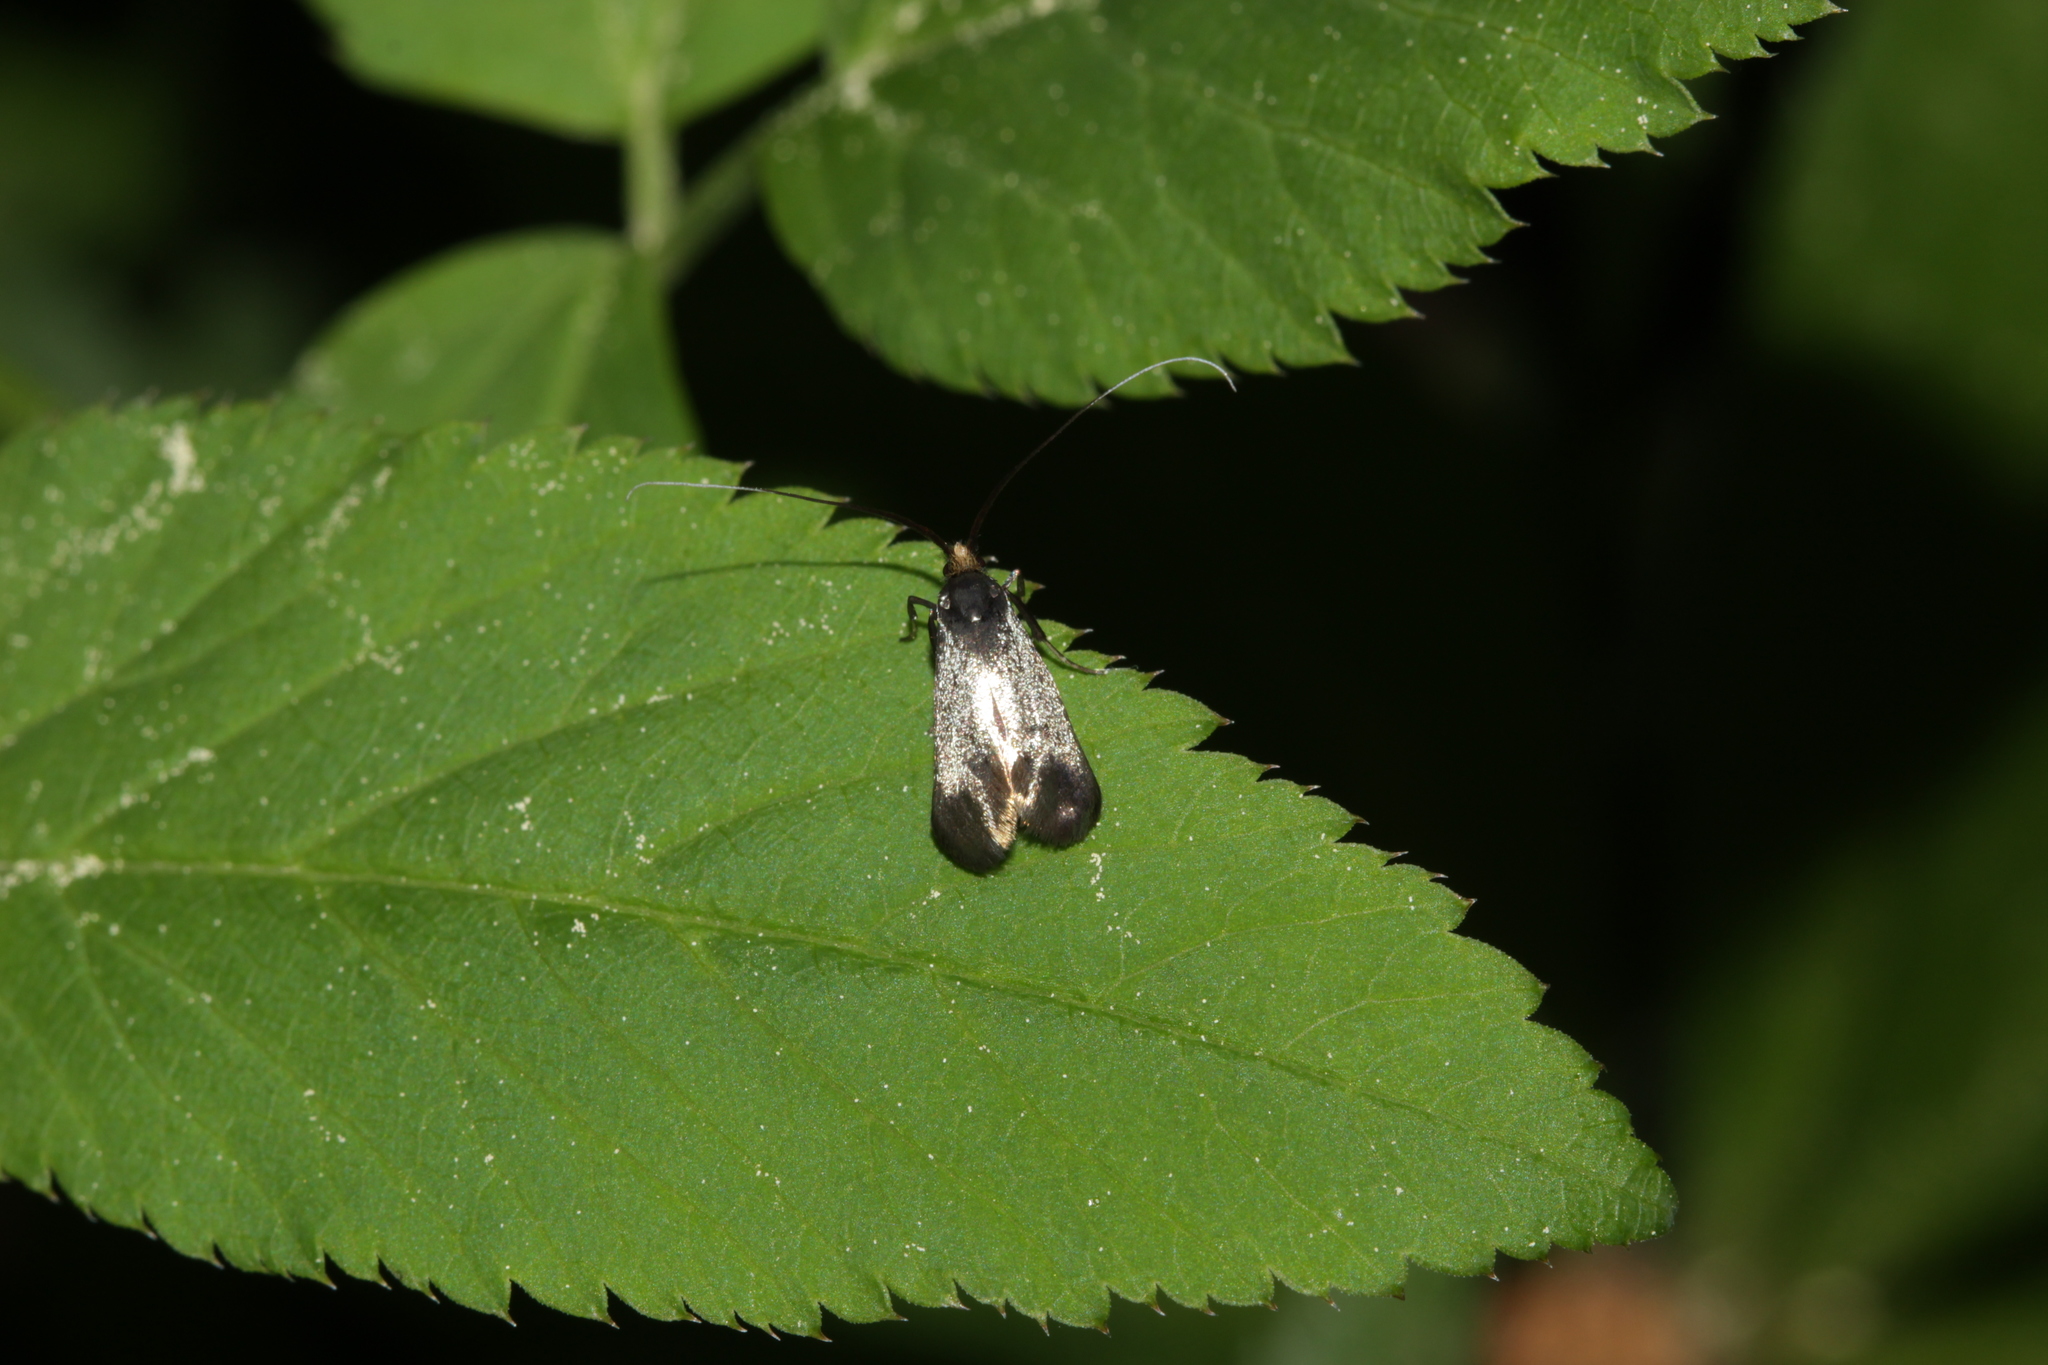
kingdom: Animalia
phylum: Arthropoda
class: Insecta
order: Lepidoptera
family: Adelidae
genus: Adela
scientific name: Adela viridella
